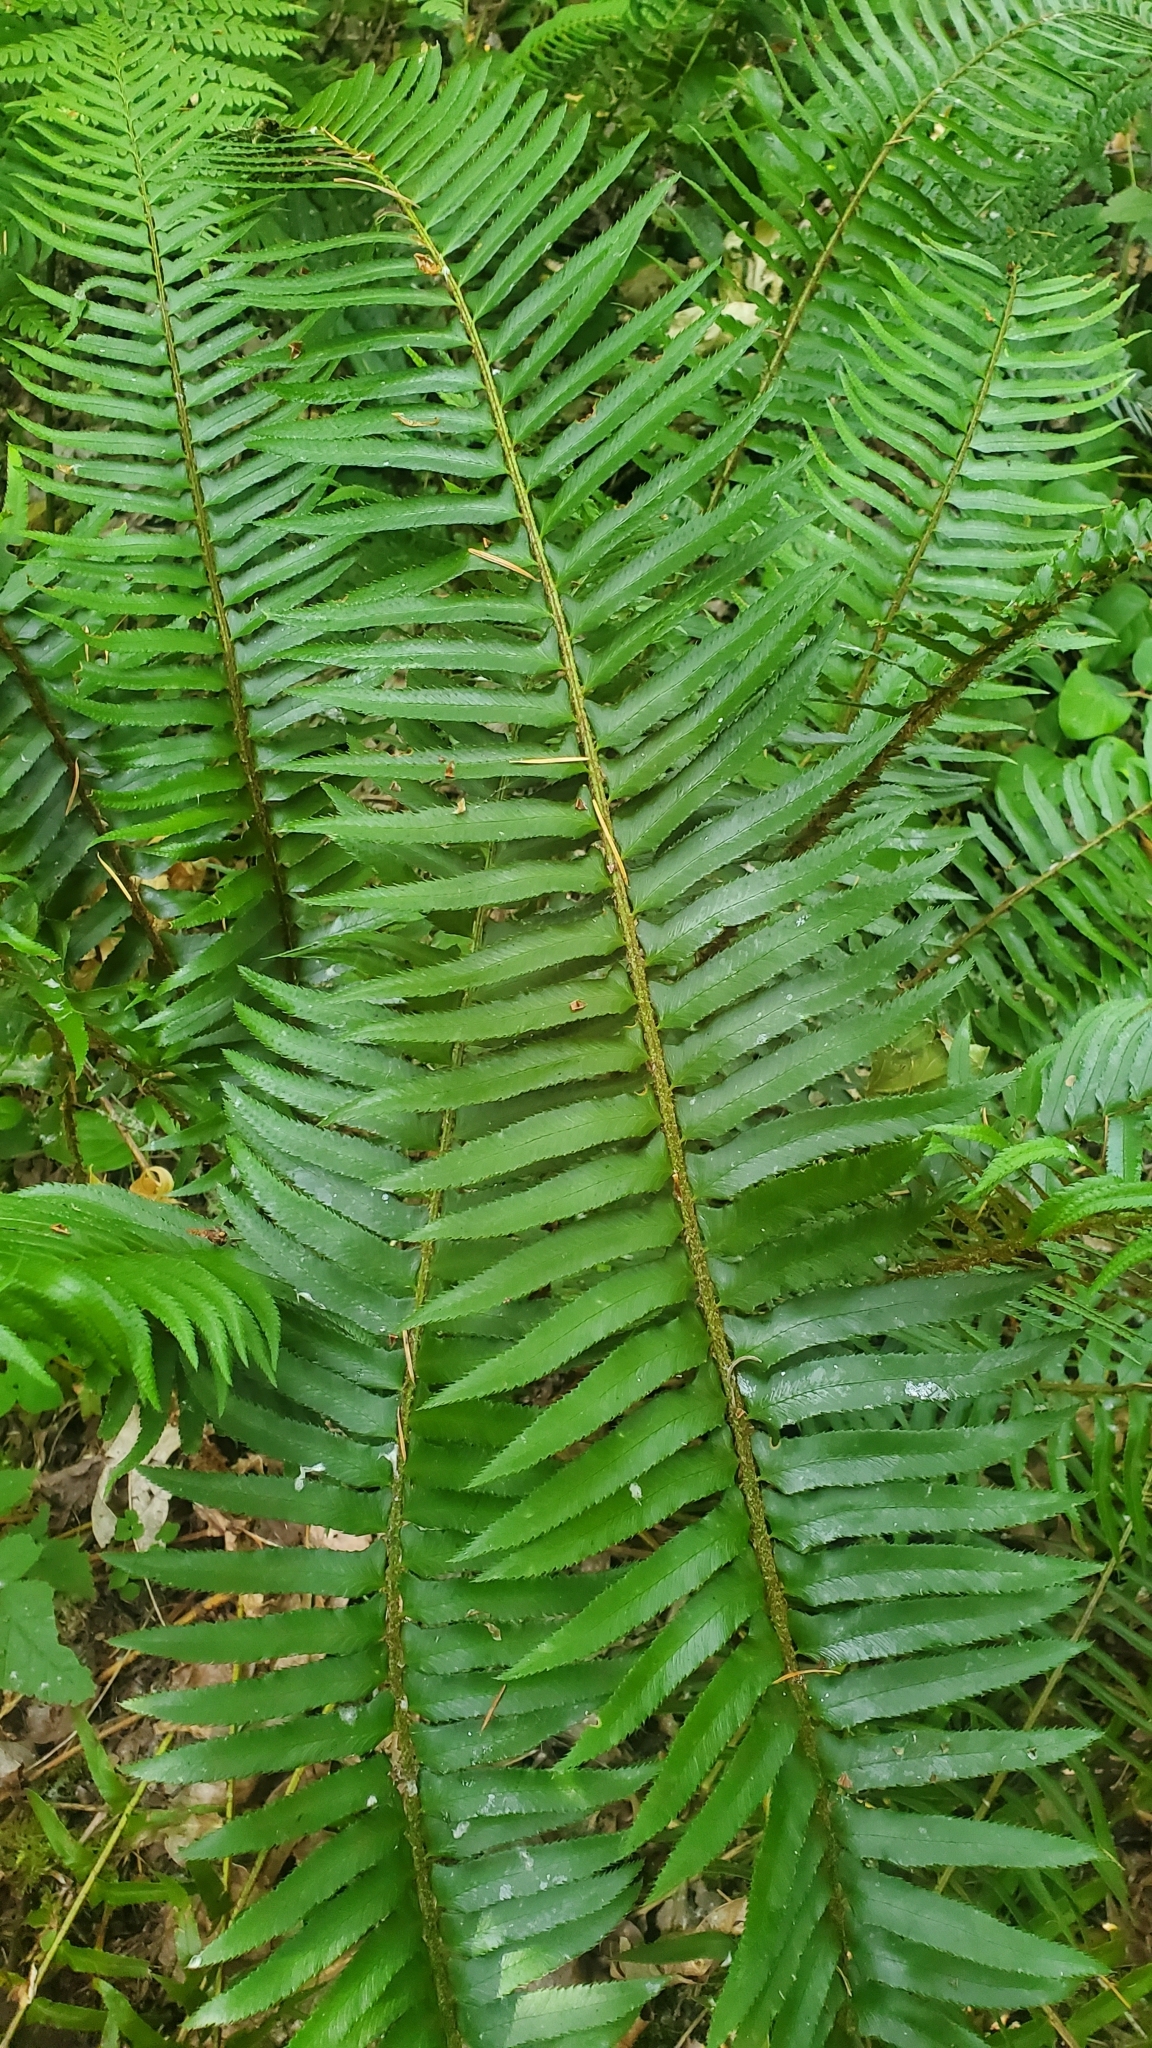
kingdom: Plantae
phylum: Tracheophyta
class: Polypodiopsida
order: Polypodiales
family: Dryopteridaceae
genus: Polystichum
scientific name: Polystichum munitum
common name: Western sword-fern
